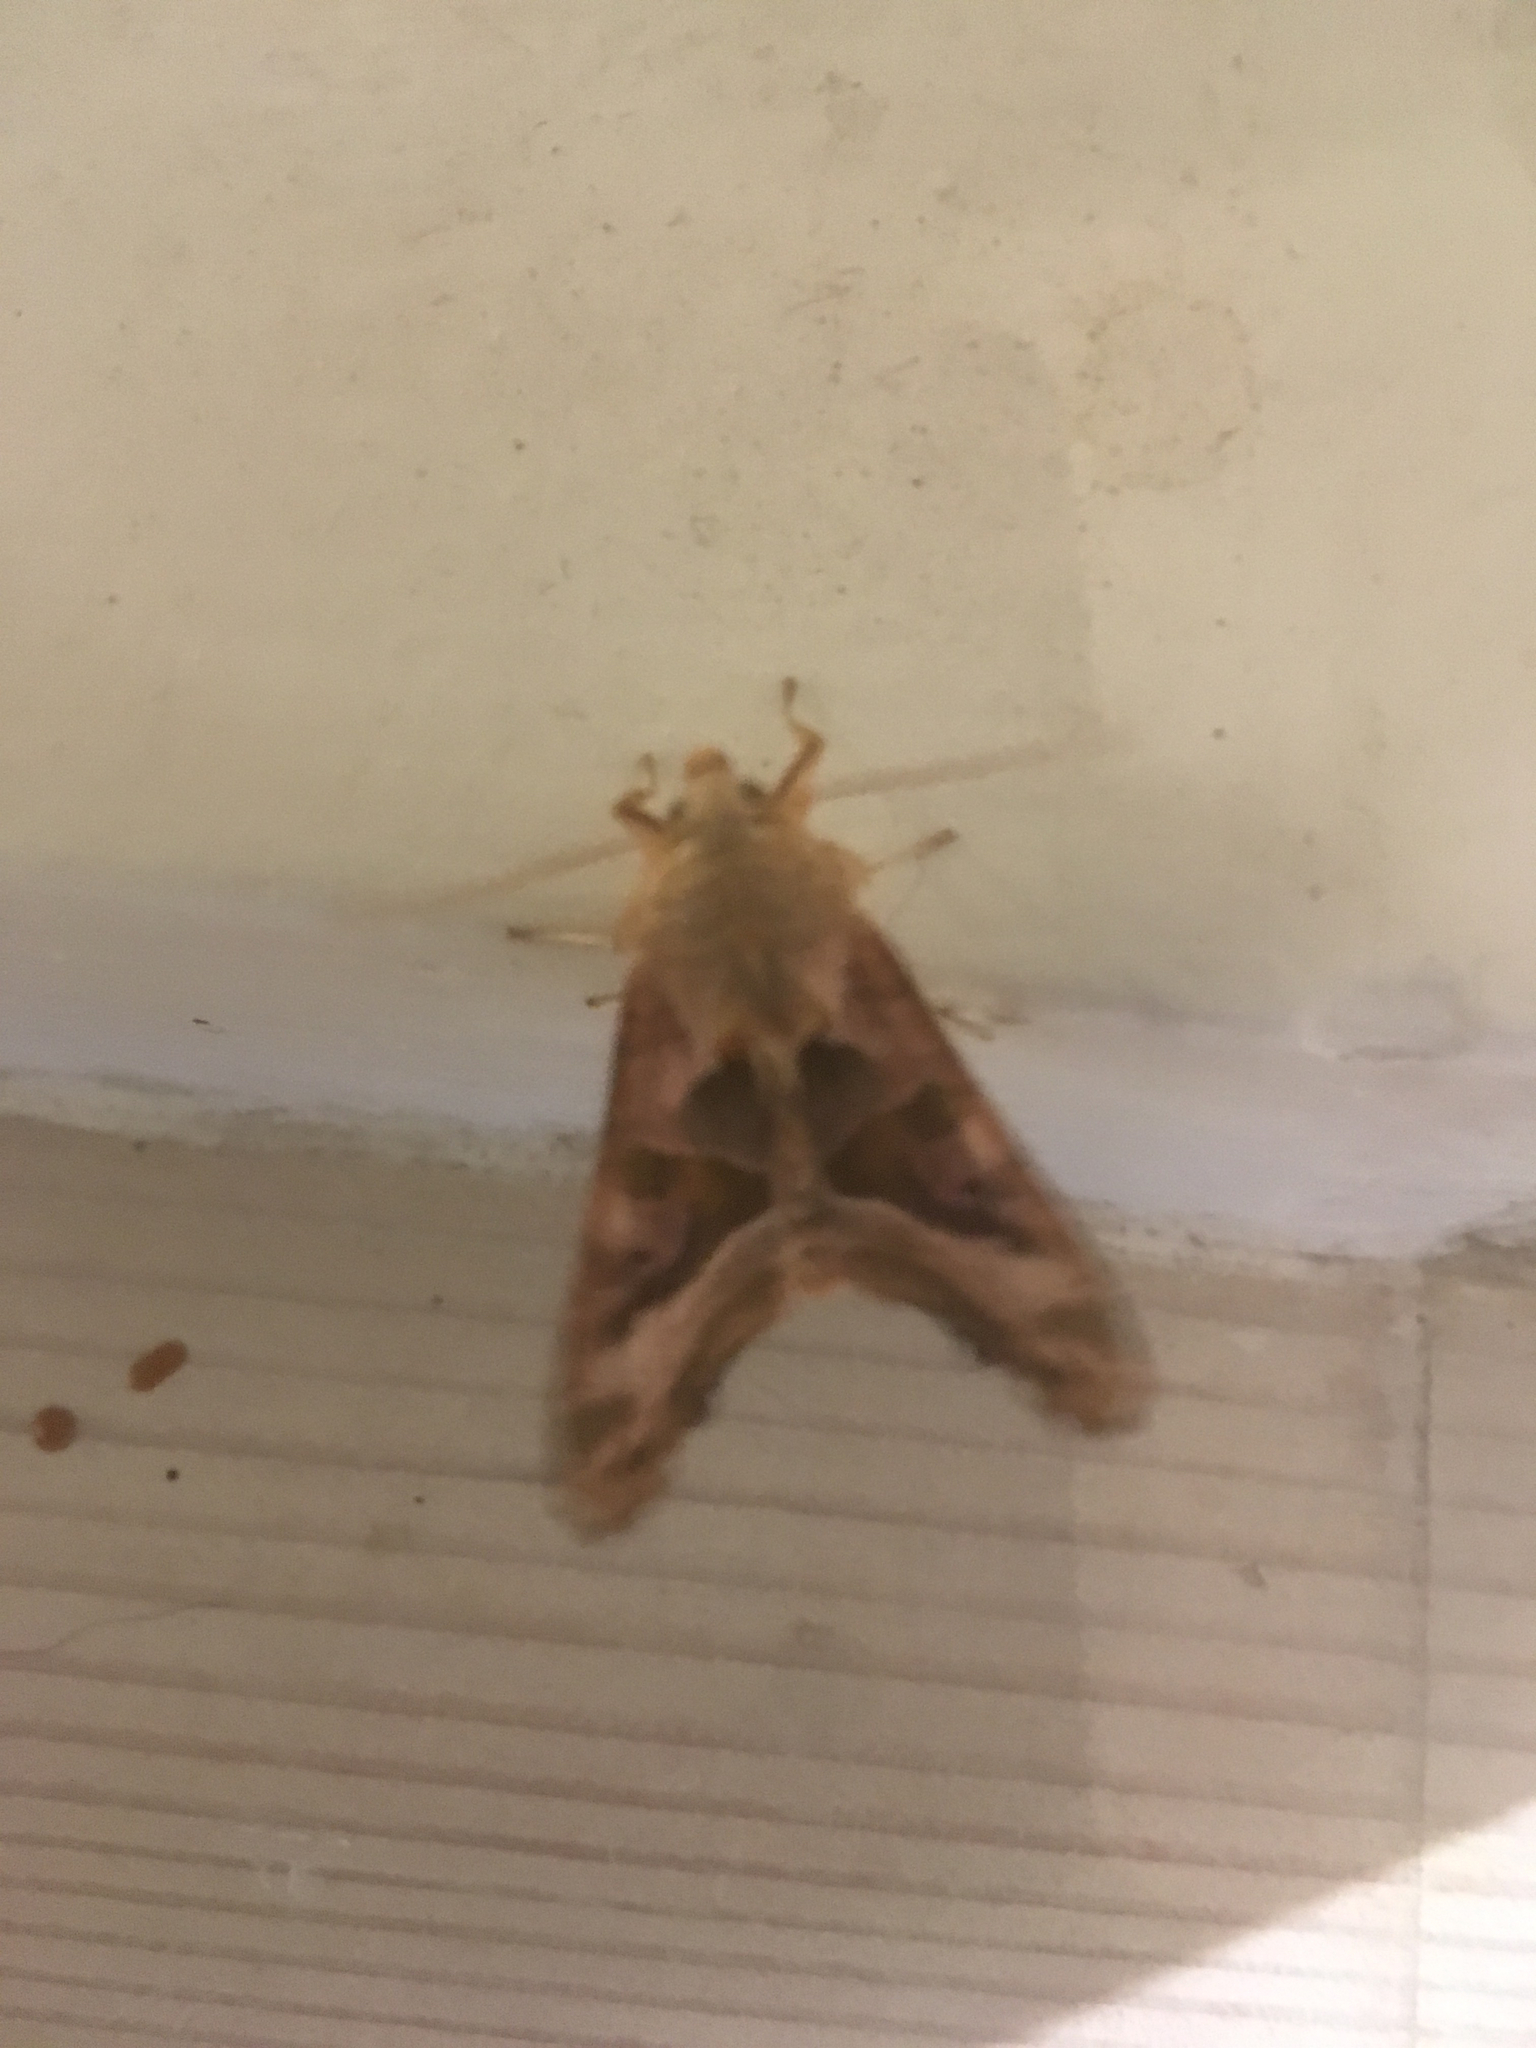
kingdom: Animalia
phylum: Arthropoda
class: Insecta
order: Lepidoptera
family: Noctuidae
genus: Phlogophora
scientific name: Phlogophora meticulosa
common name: Angle shades
